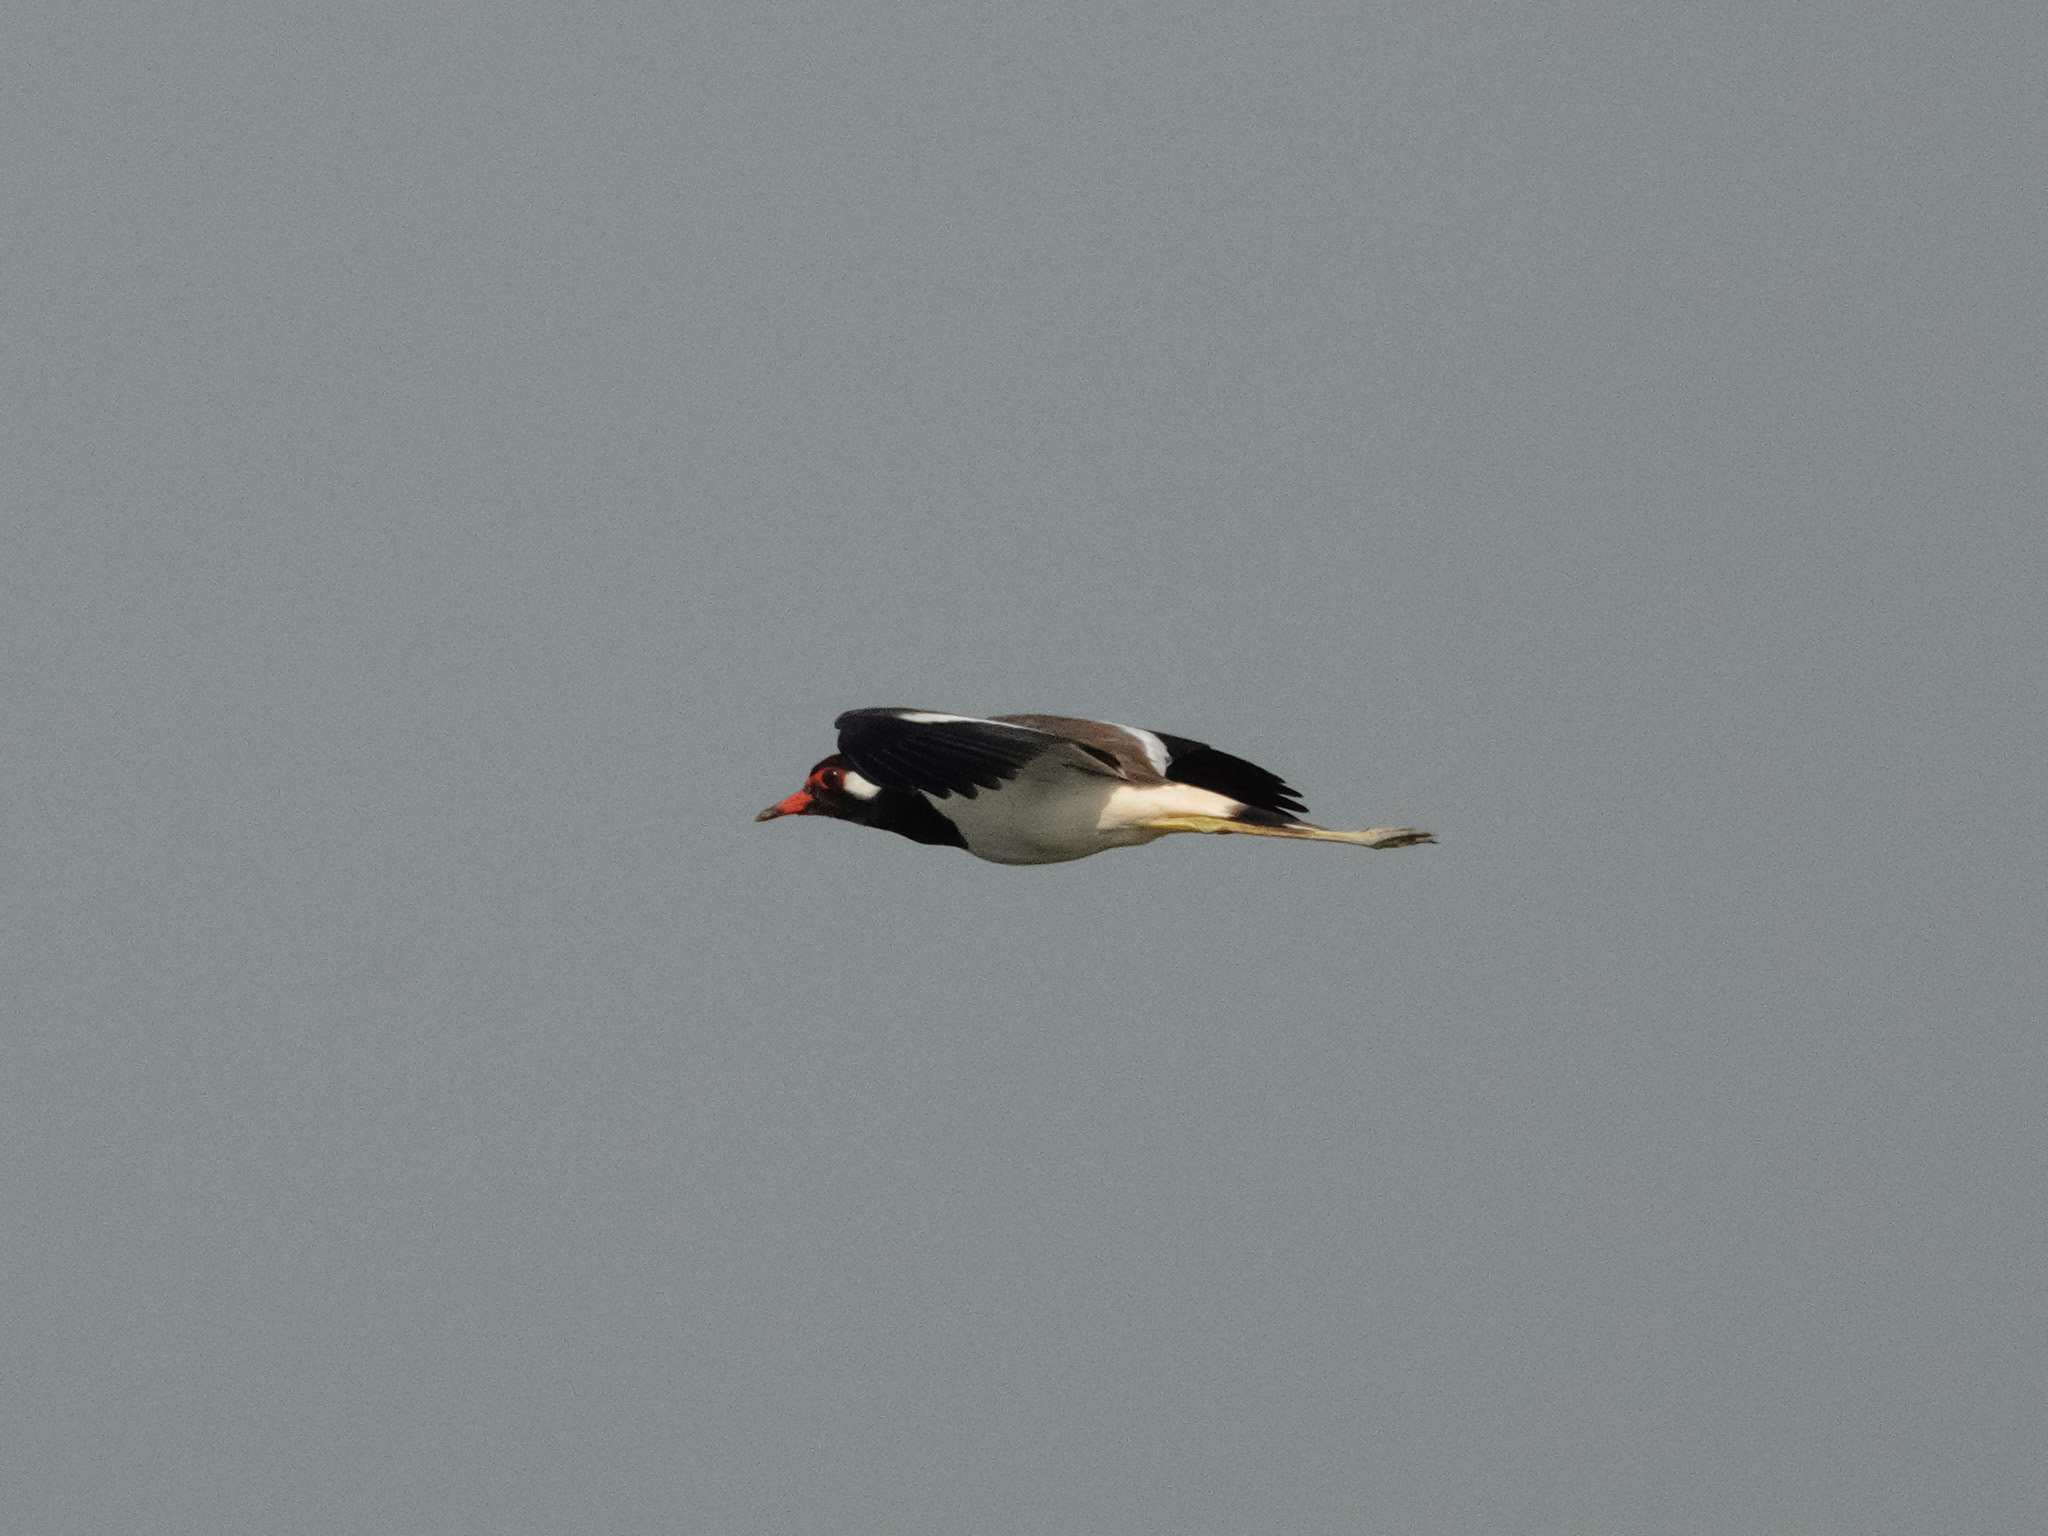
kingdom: Animalia
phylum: Chordata
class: Aves
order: Charadriiformes
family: Charadriidae
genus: Vanellus
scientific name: Vanellus indicus
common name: Red-wattled lapwing
